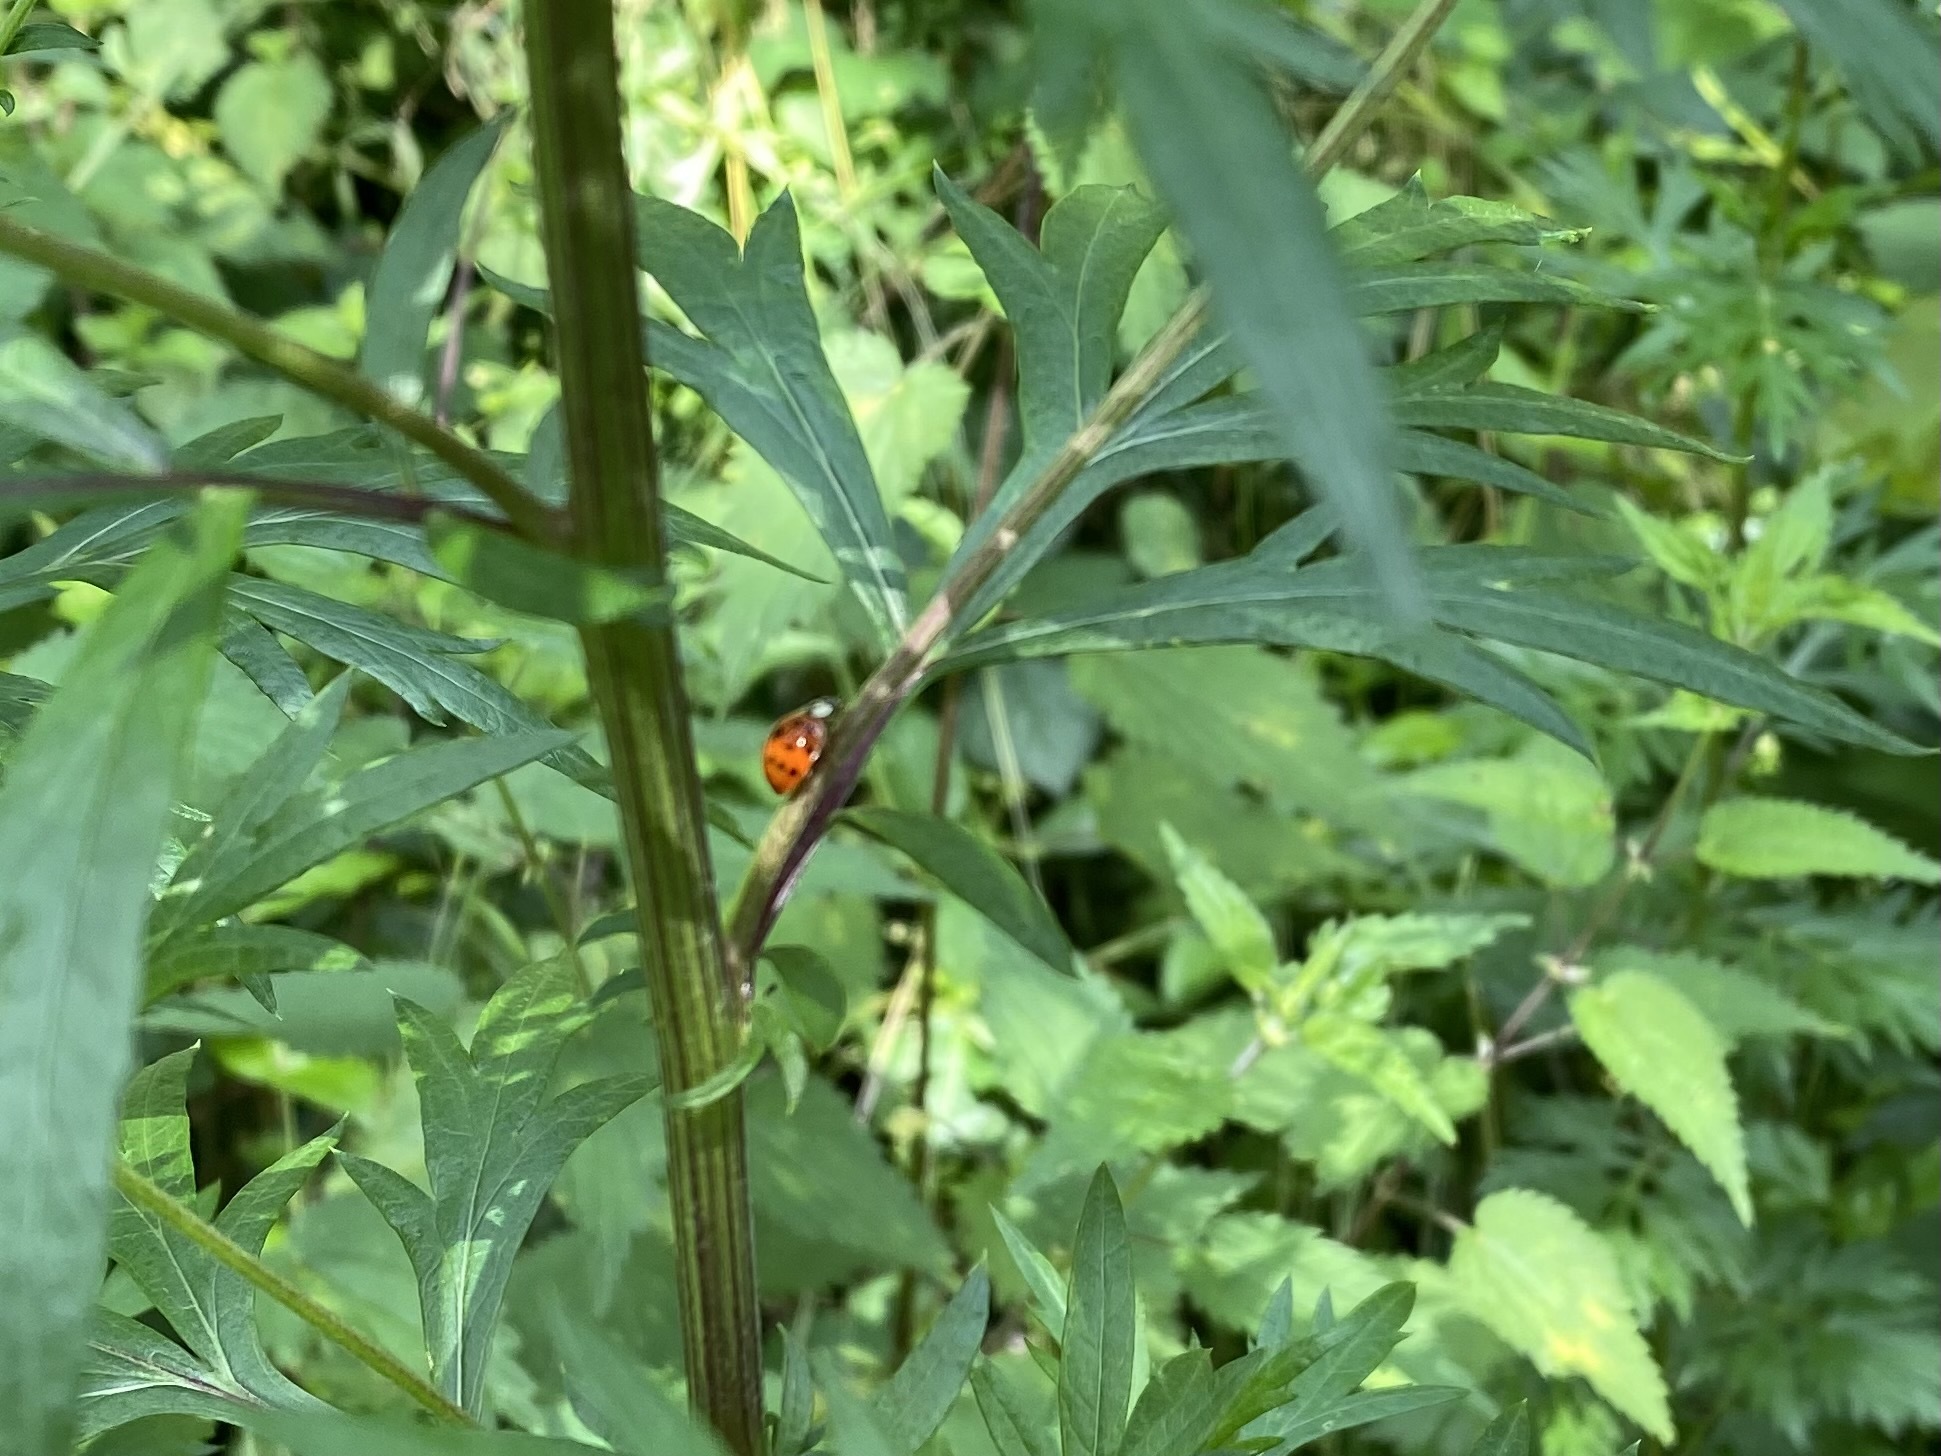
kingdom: Animalia
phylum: Arthropoda
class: Insecta
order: Coleoptera
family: Coccinellidae
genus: Harmonia
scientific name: Harmonia axyridis
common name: Harlequin ladybird
